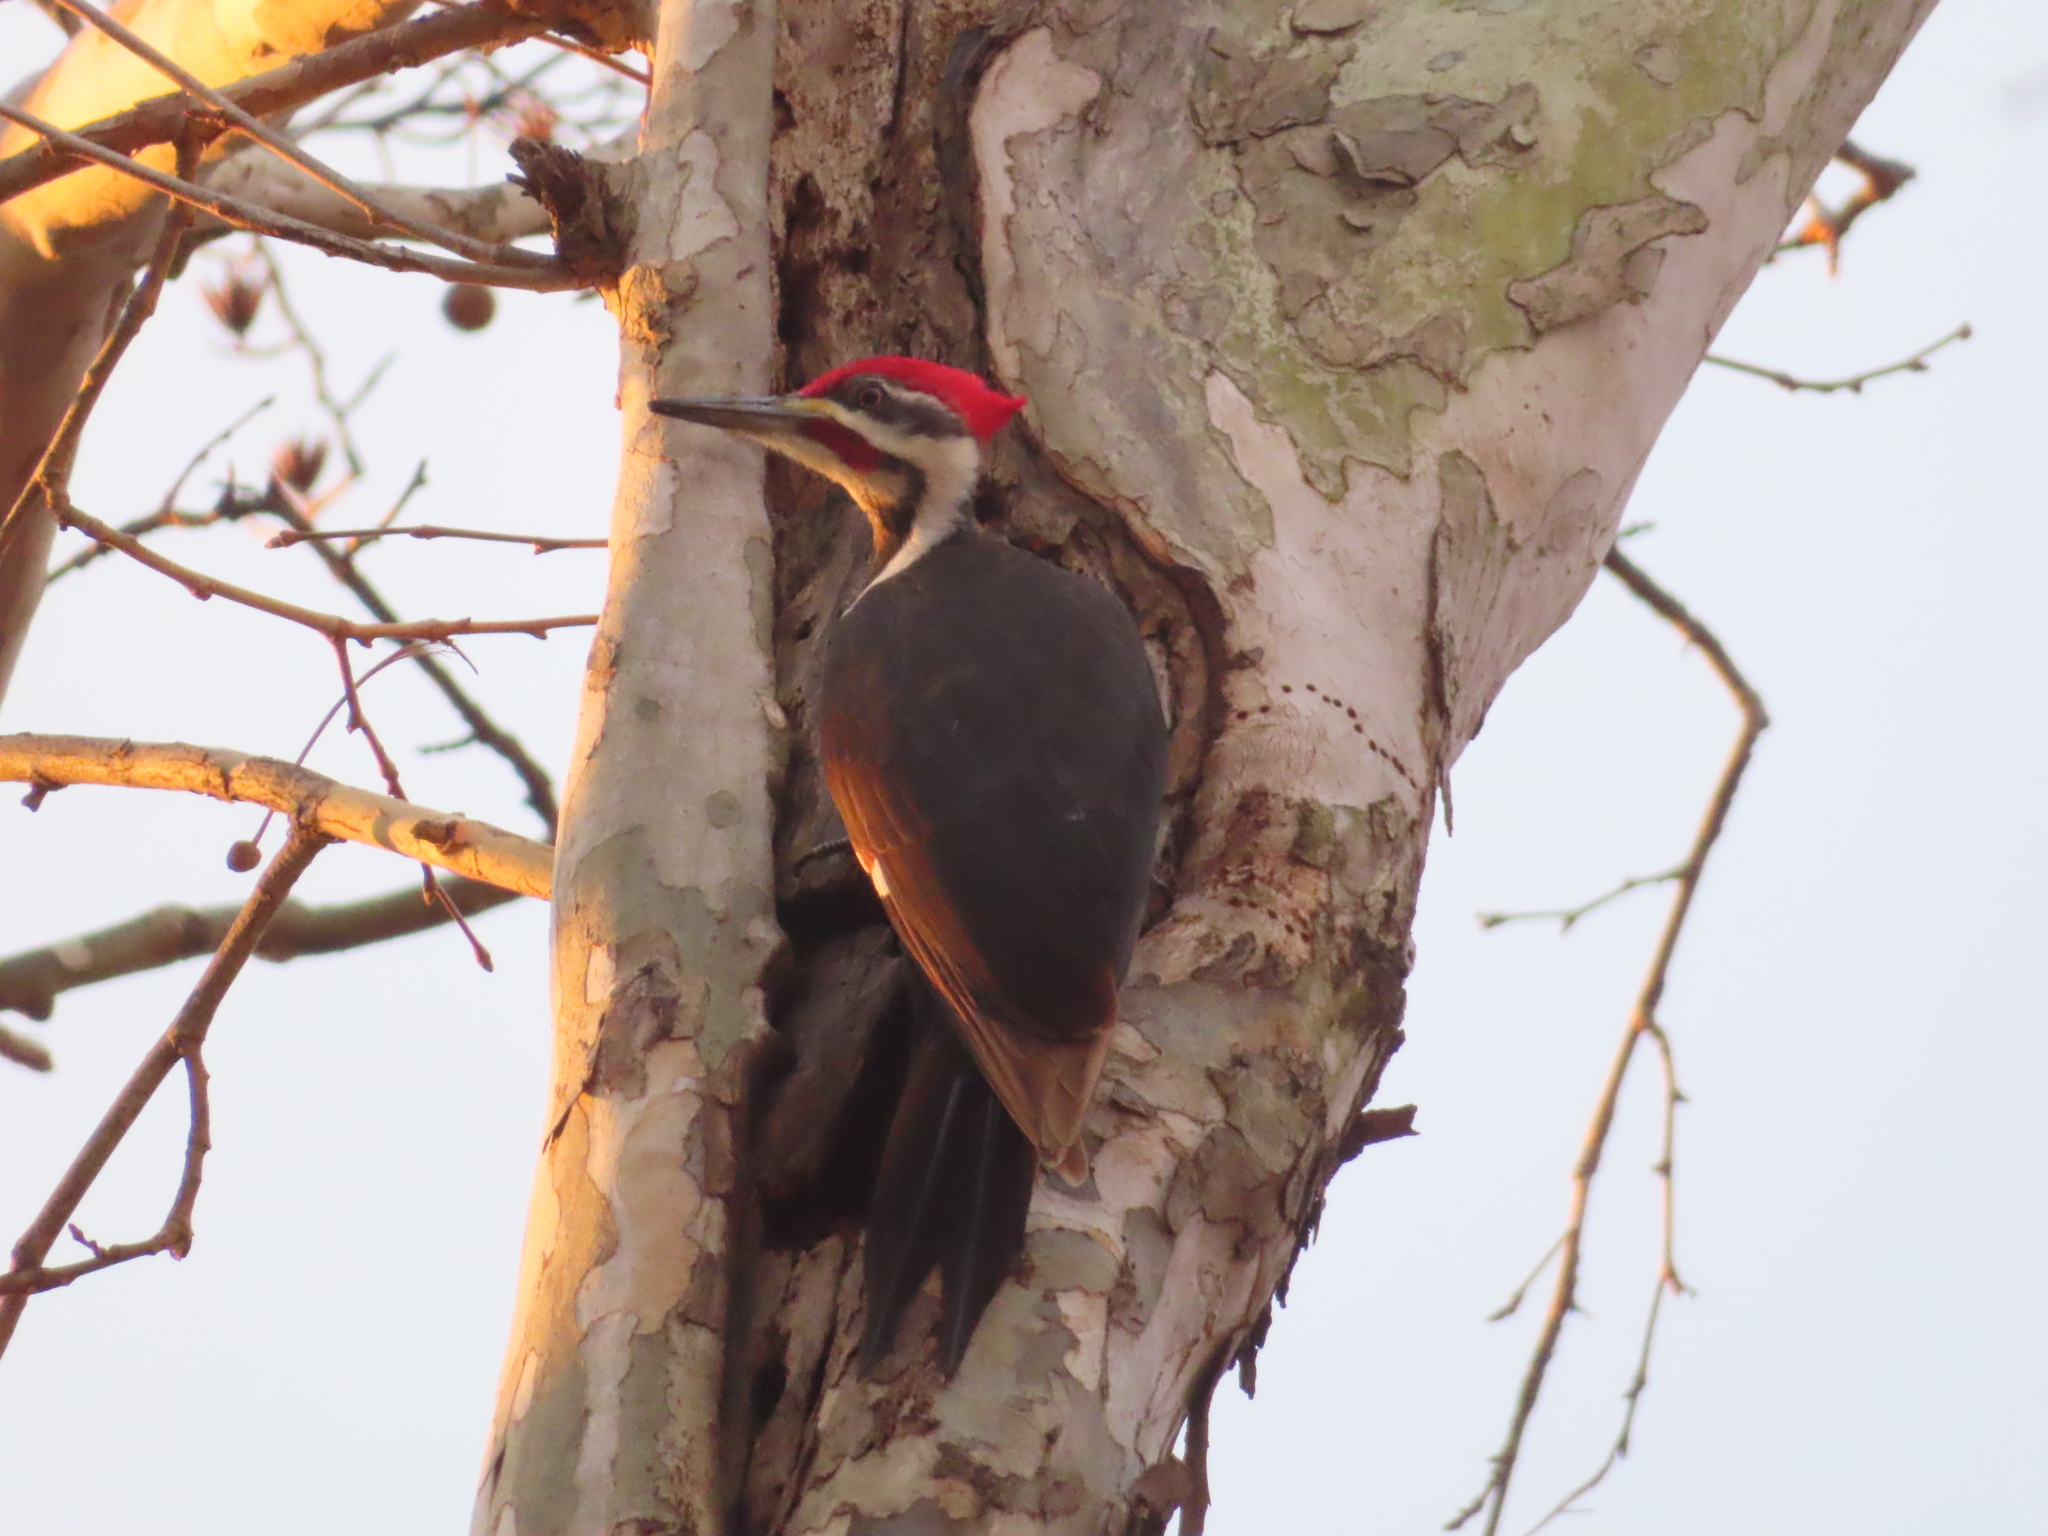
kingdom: Animalia
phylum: Chordata
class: Aves
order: Piciformes
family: Picidae
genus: Dryocopus
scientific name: Dryocopus pileatus
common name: Pileated woodpecker
